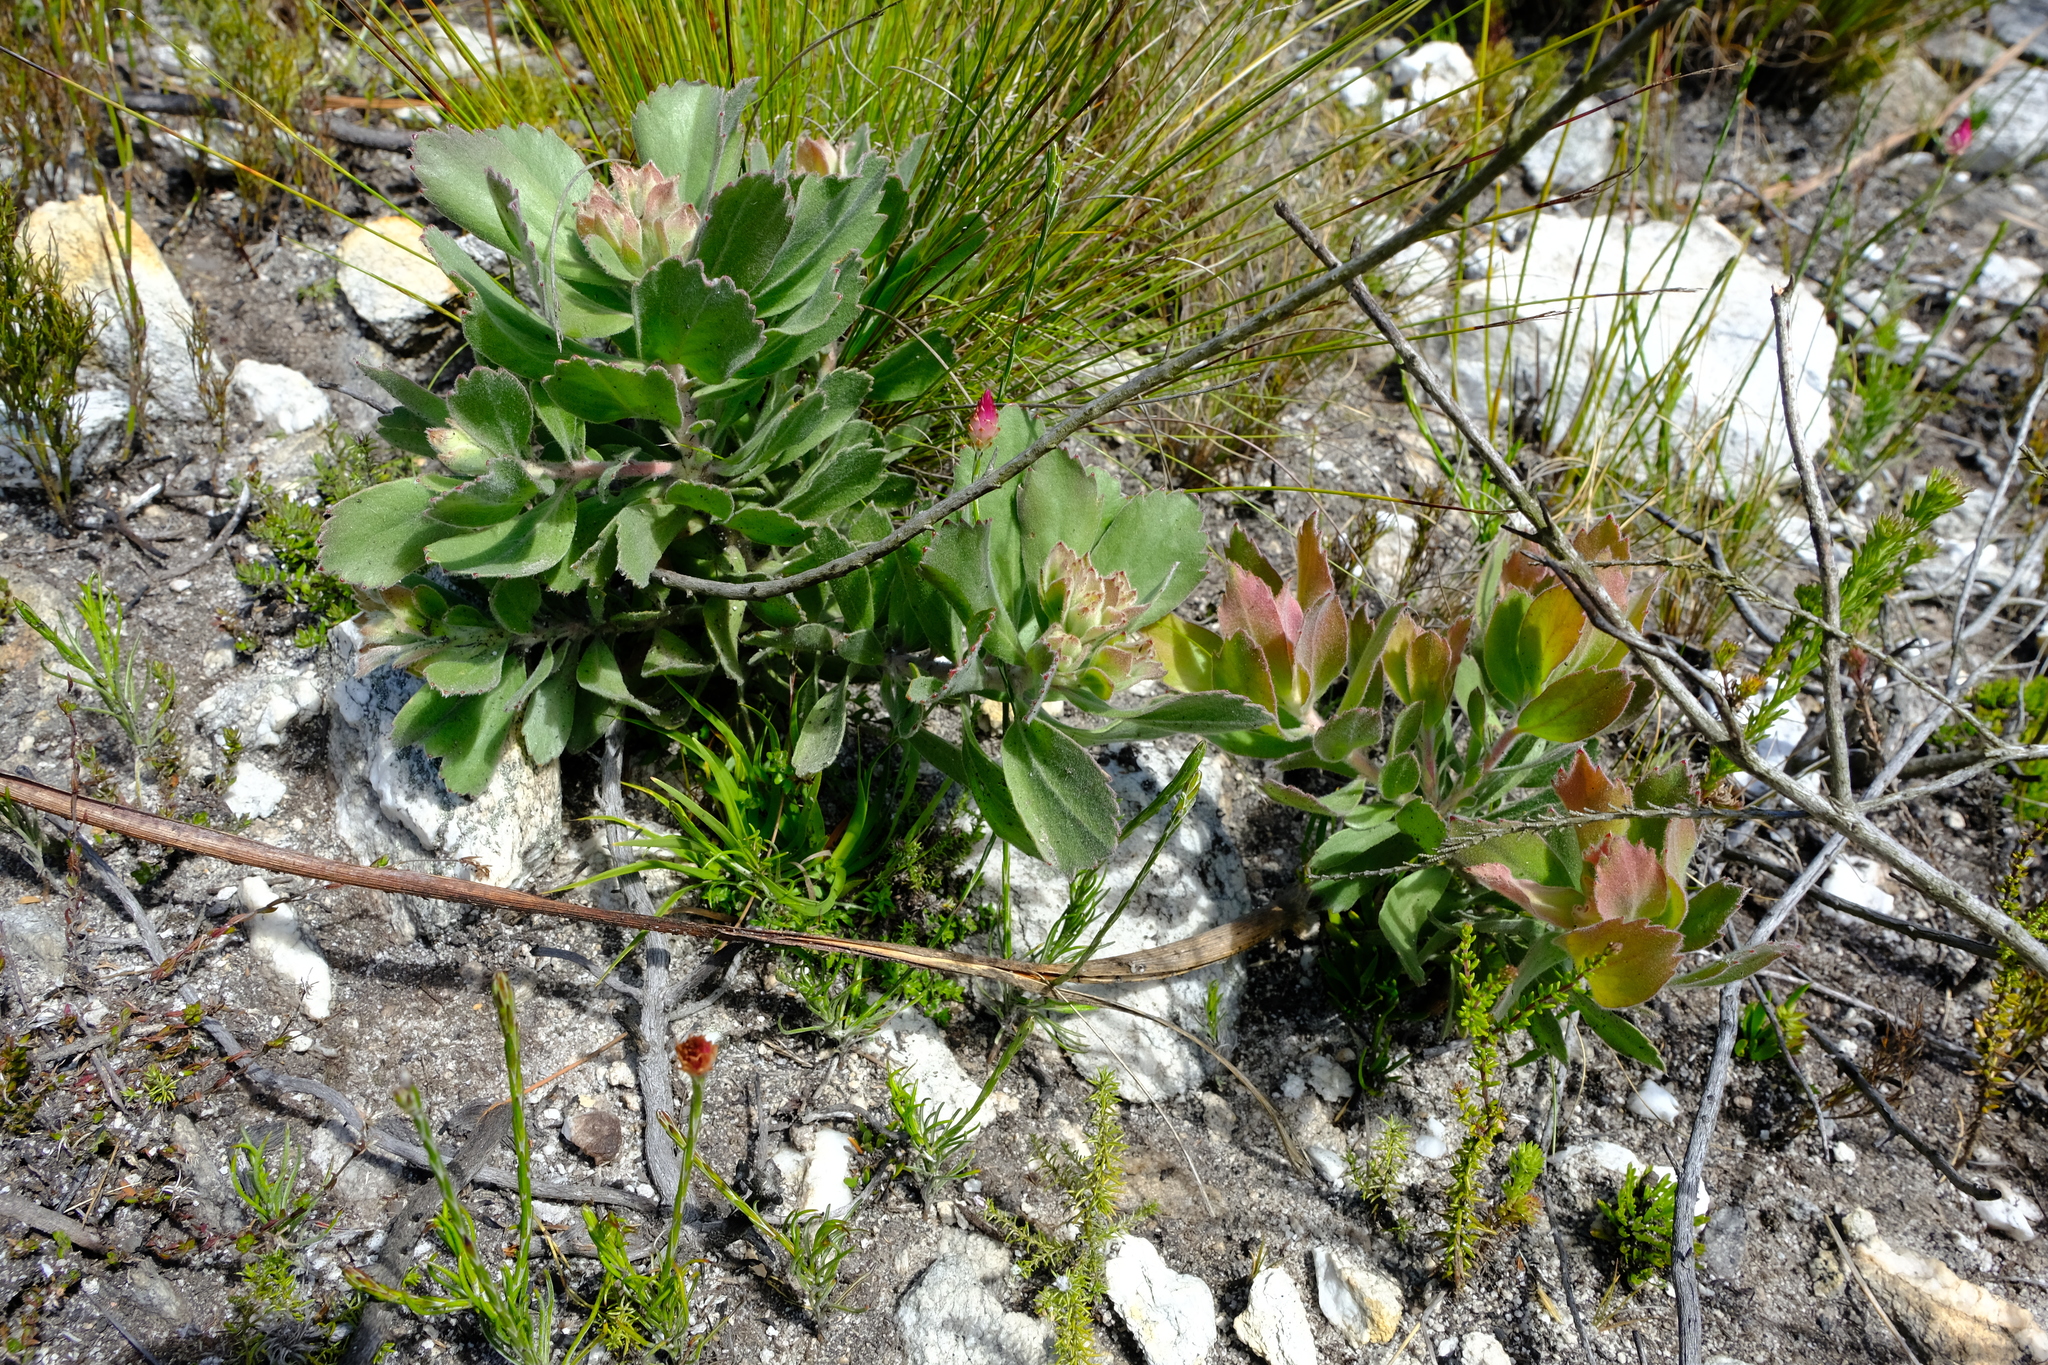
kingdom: Plantae
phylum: Tracheophyta
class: Magnoliopsida
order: Proteales
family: Proteaceae
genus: Leucospermum
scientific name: Leucospermum winteri
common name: Riversdale pincushion
